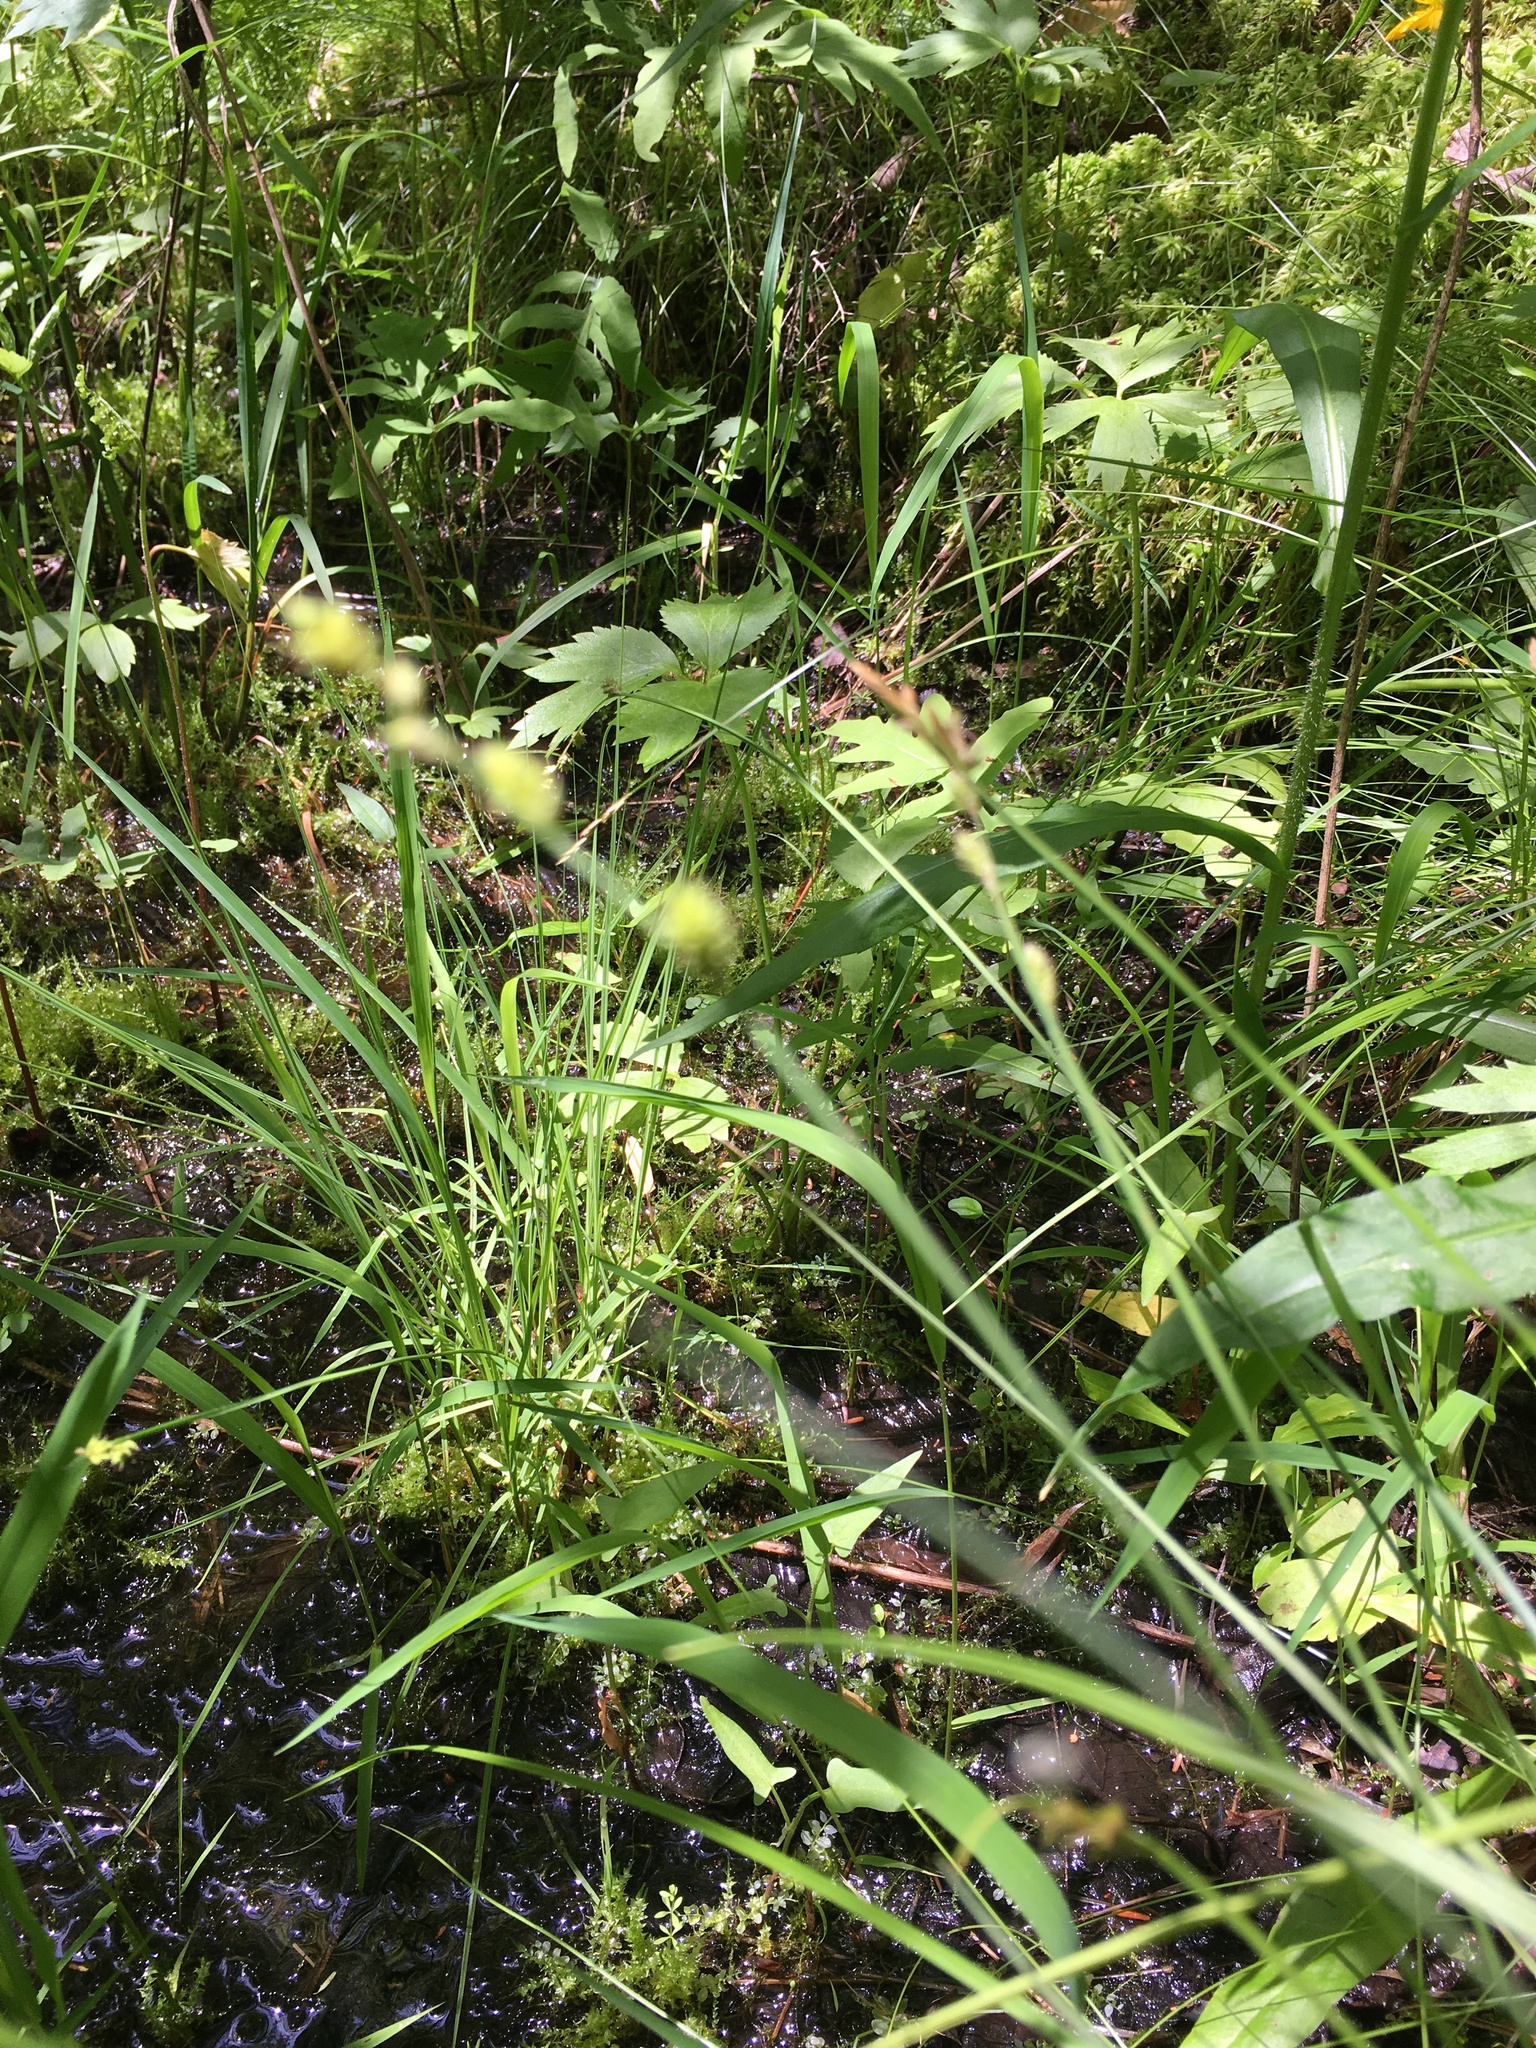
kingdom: Plantae
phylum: Tracheophyta
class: Liliopsida
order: Poales
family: Cyperaceae
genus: Carex
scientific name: Carex
